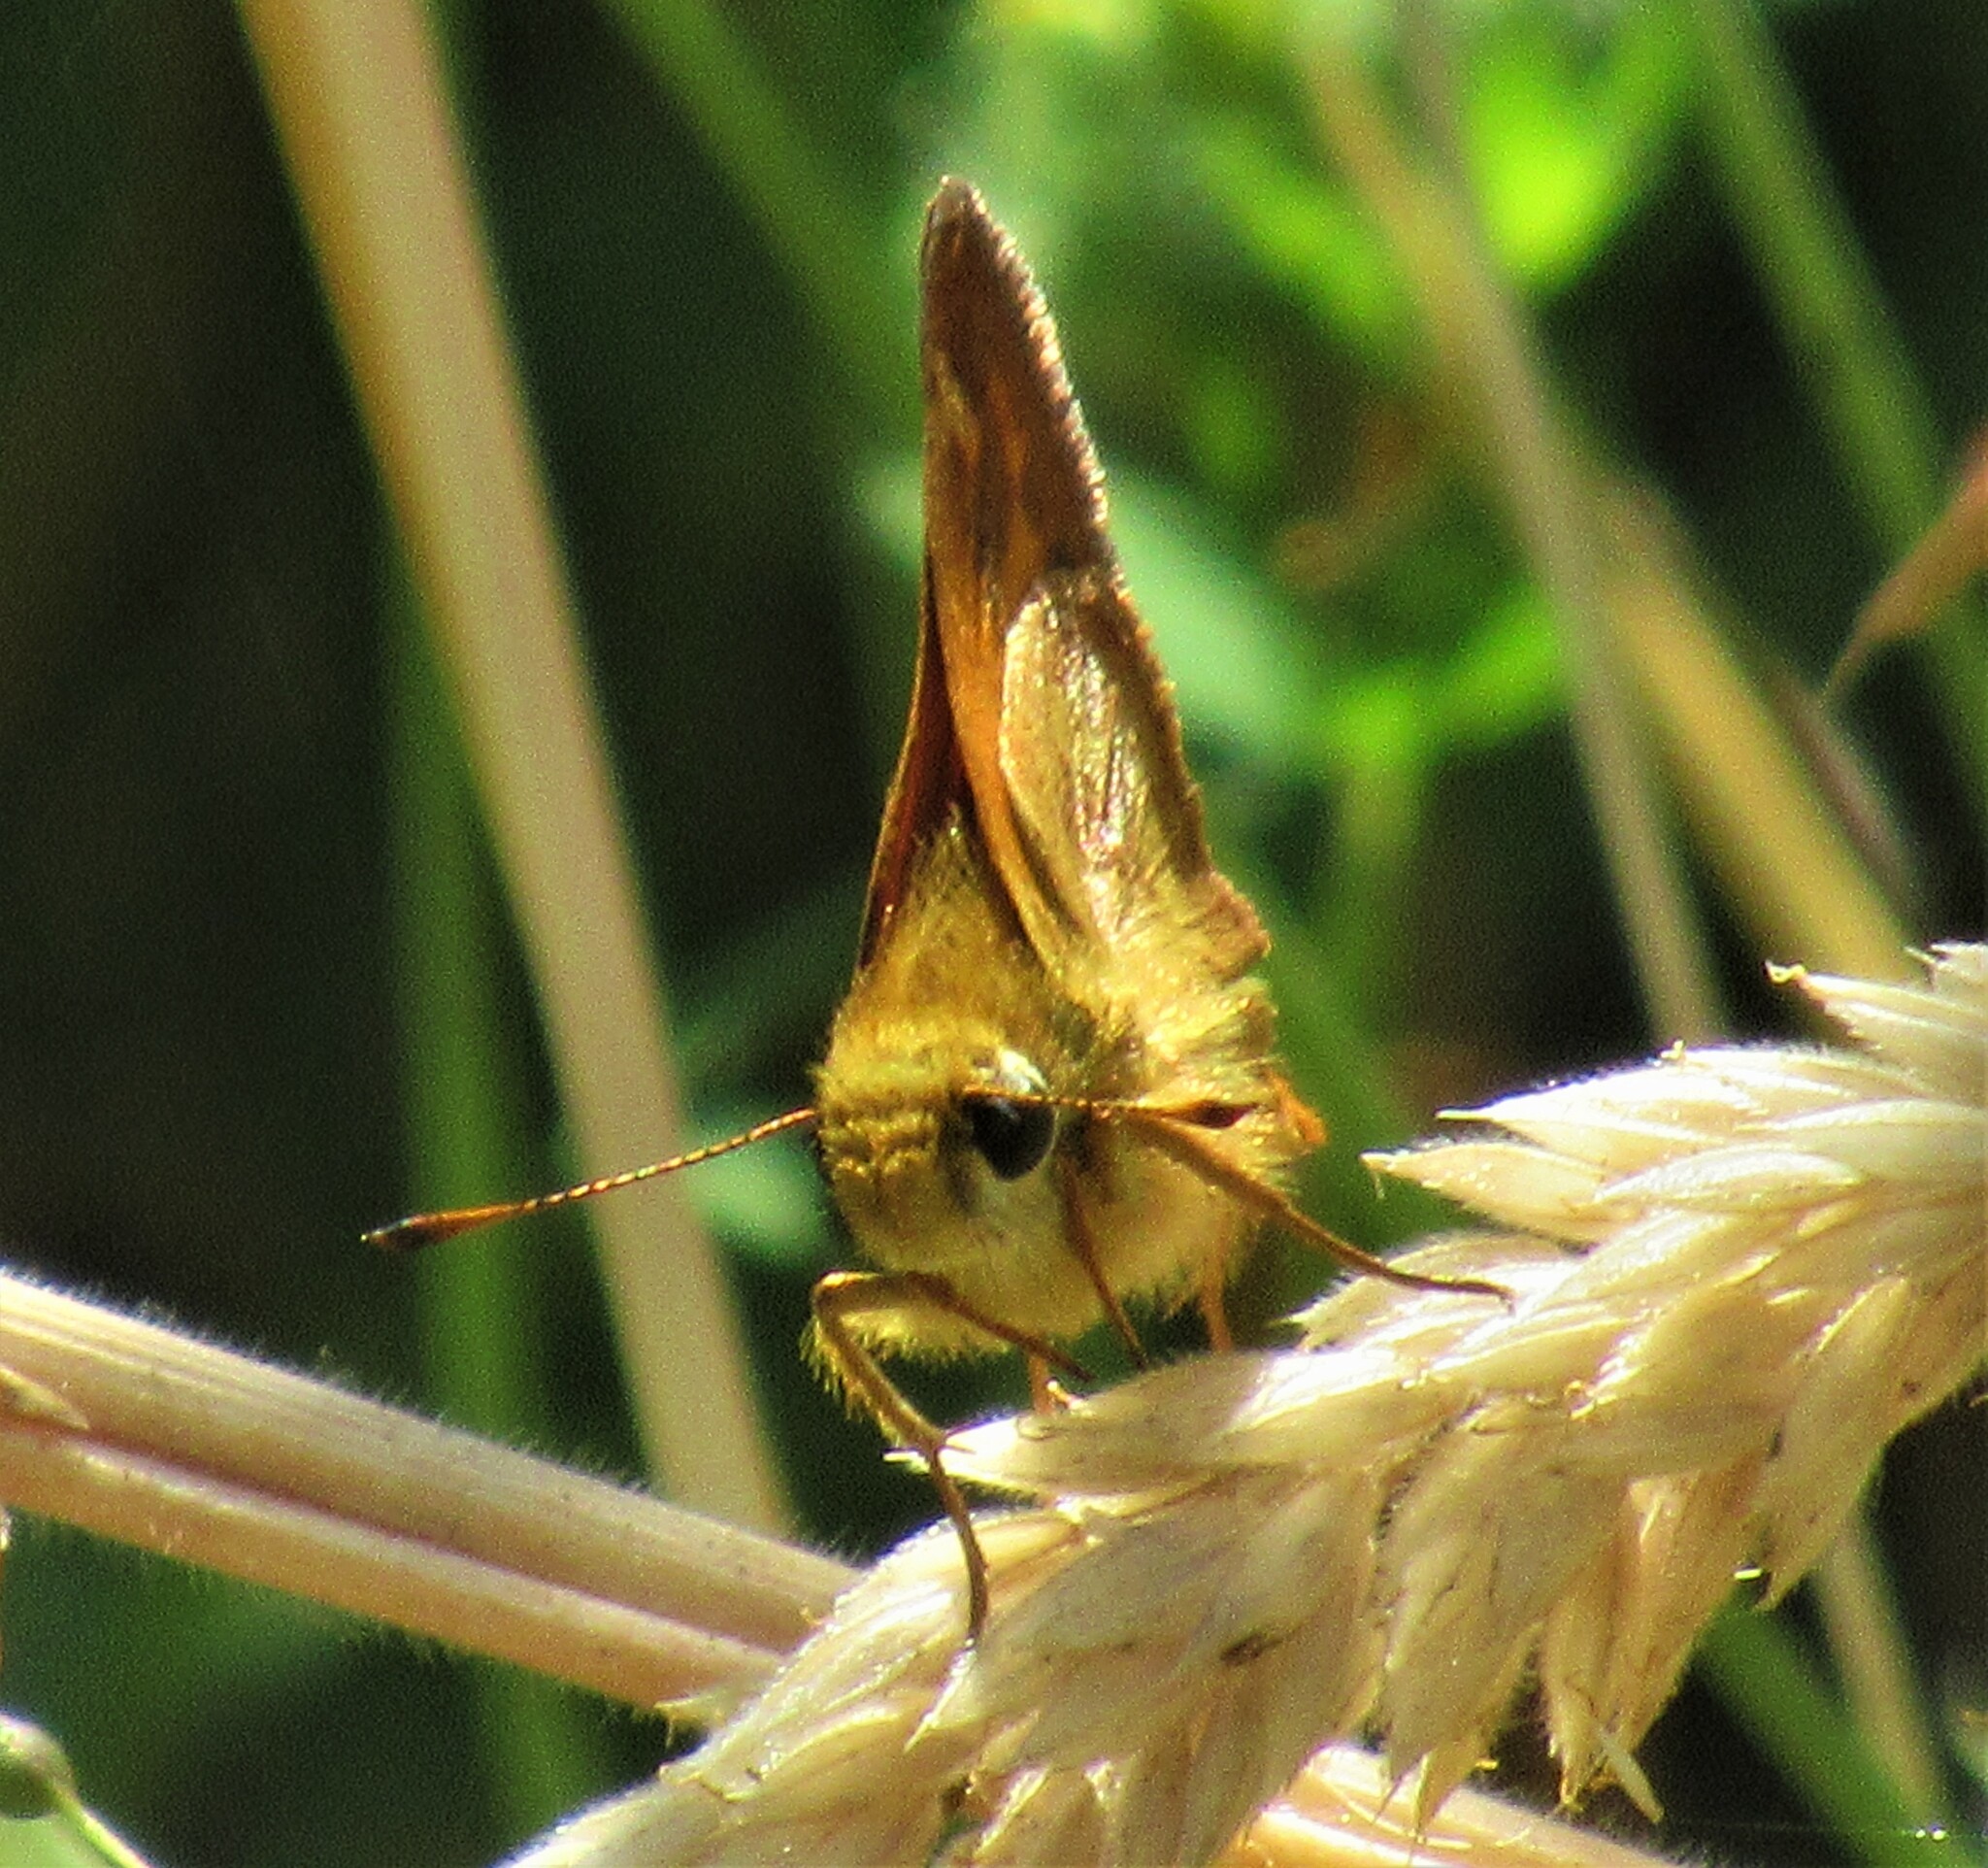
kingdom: Animalia
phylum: Arthropoda
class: Insecta
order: Lepidoptera
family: Hesperiidae
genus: Ochlodes
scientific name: Ochlodes sylvanoides
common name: Woodland skipper
